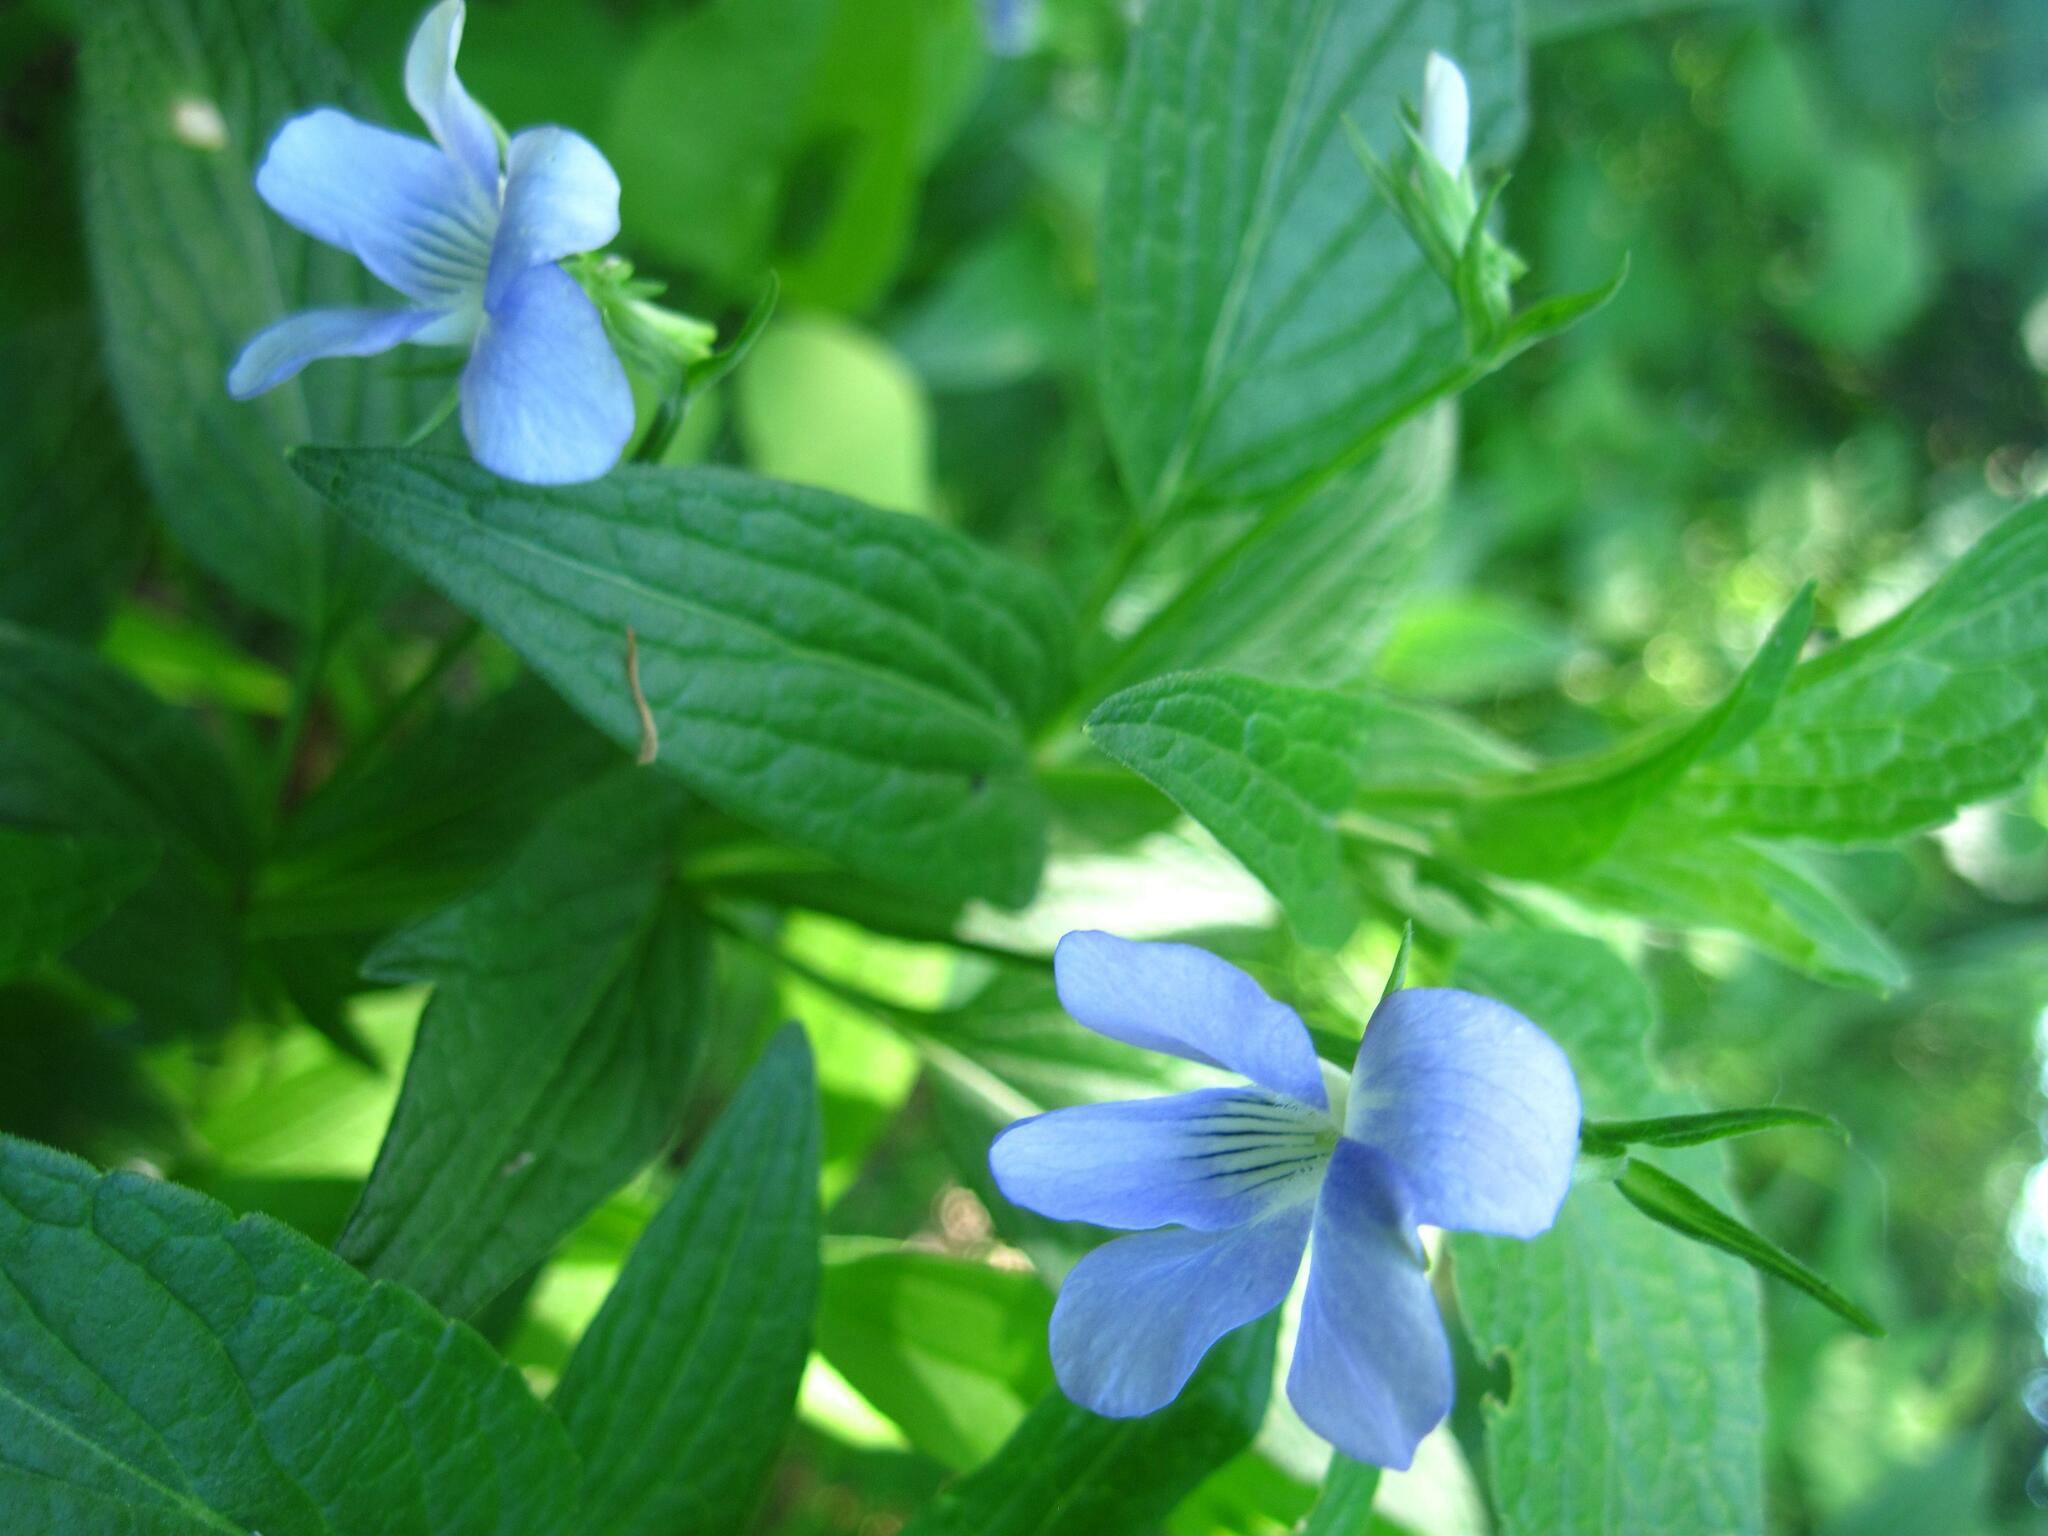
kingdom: Plantae
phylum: Tracheophyta
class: Magnoliopsida
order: Malpighiales
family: Violaceae
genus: Viola
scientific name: Viola elatior
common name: Tall violet
